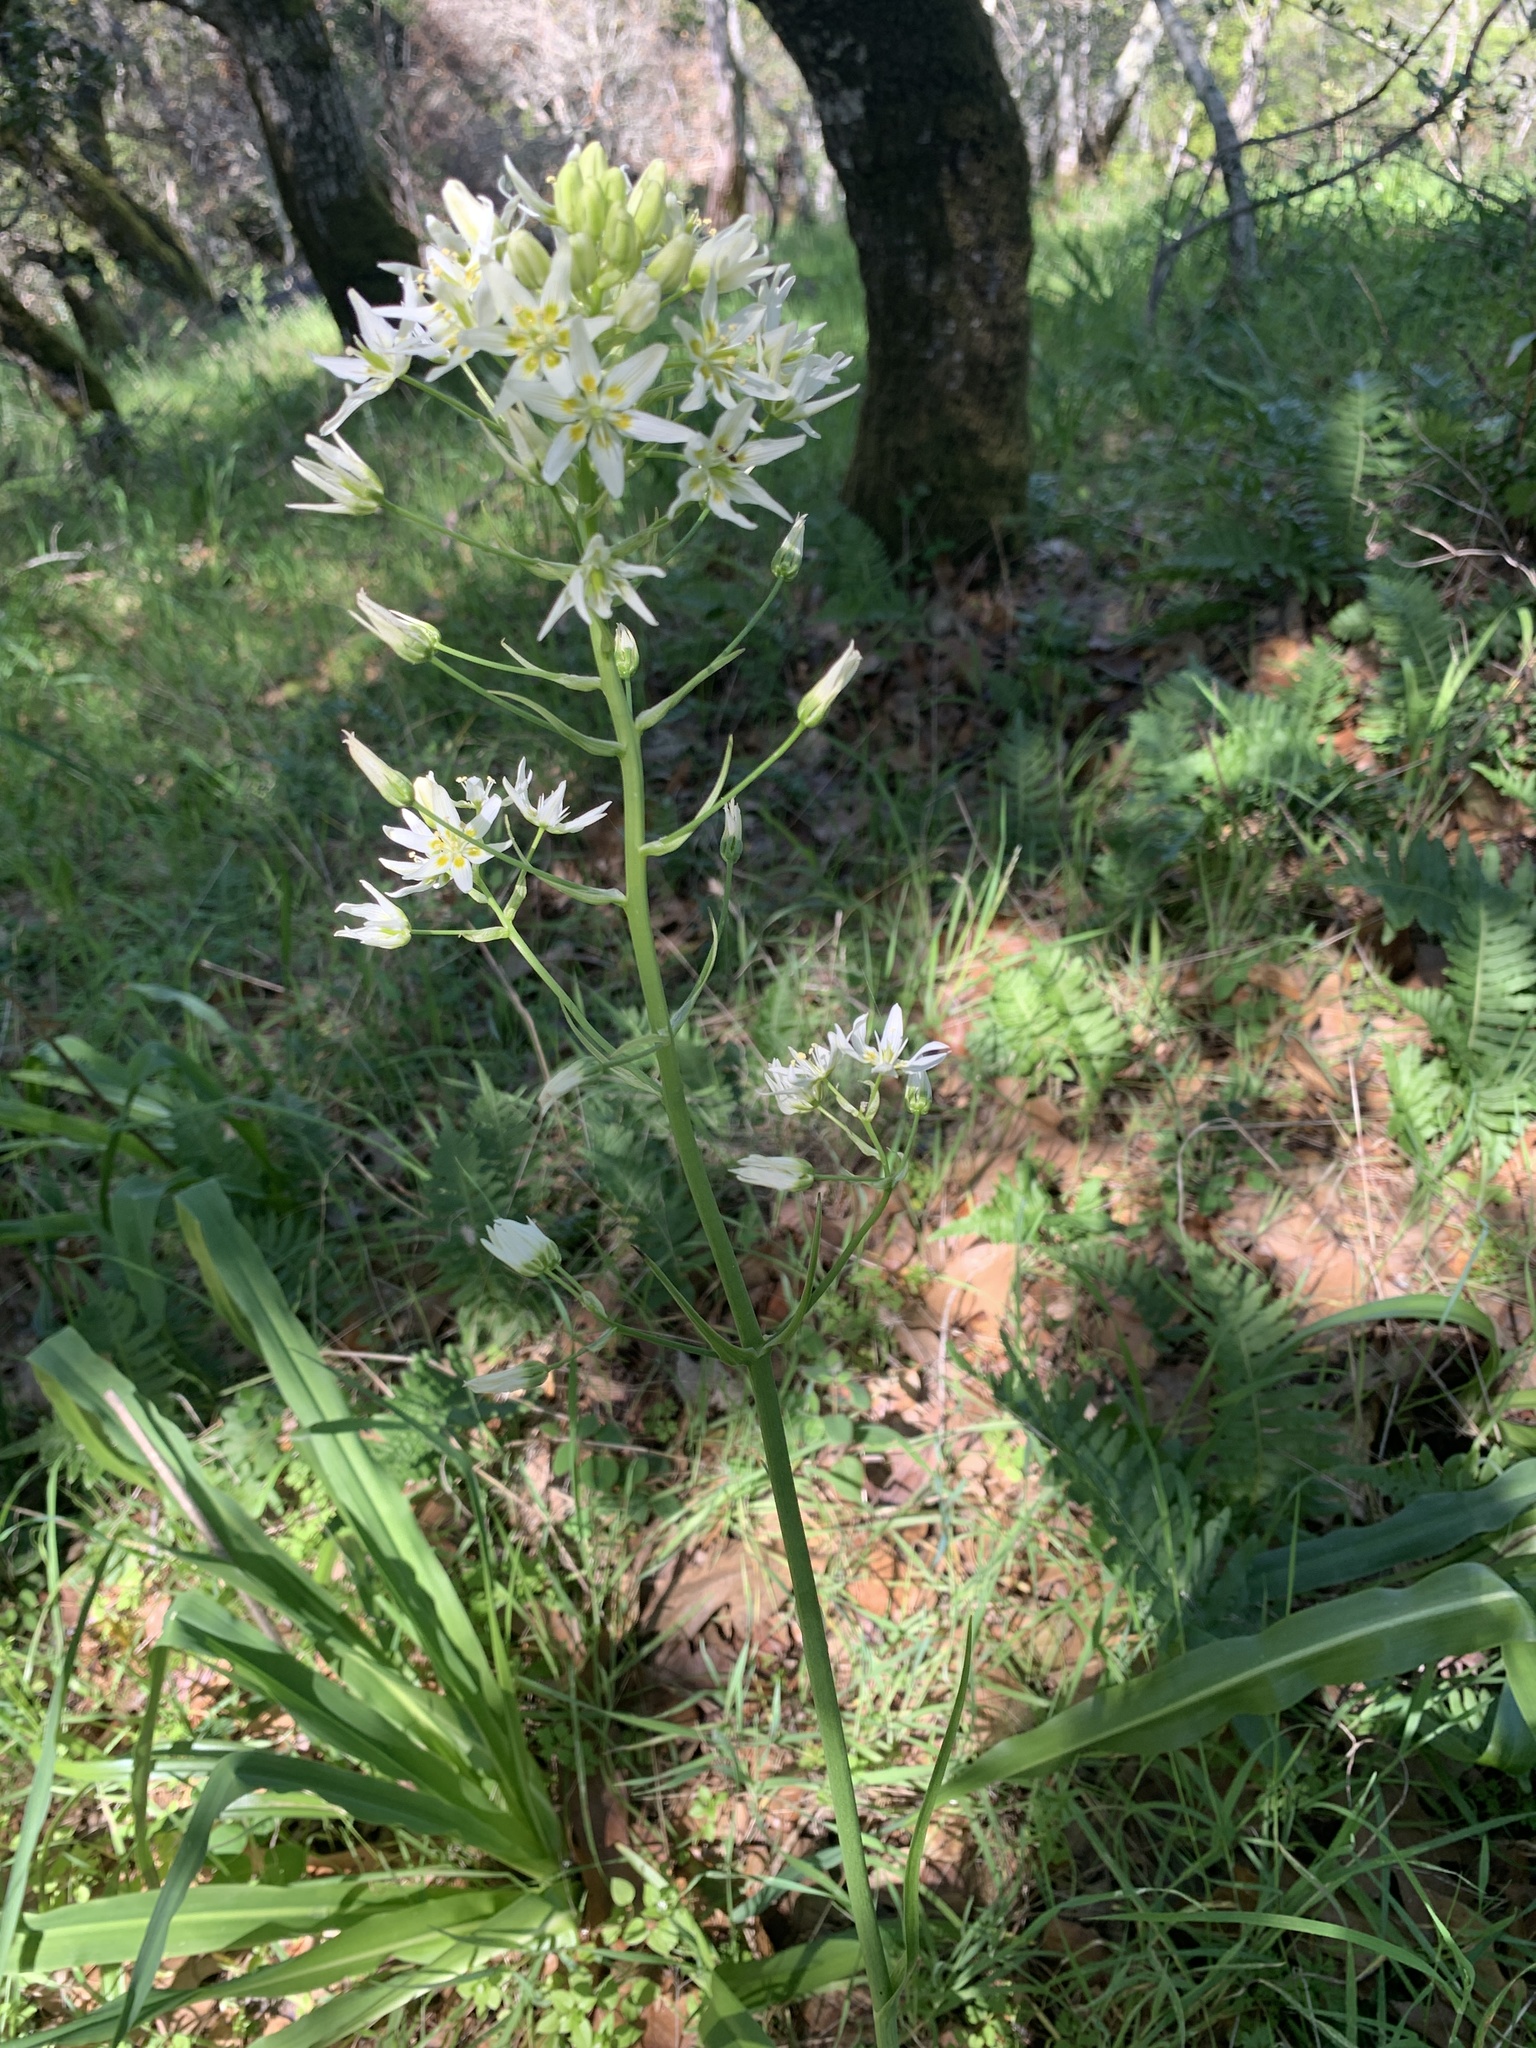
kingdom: Plantae
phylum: Tracheophyta
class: Liliopsida
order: Liliales
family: Melanthiaceae
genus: Toxicoscordion
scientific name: Toxicoscordion fremontii
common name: Fremont's death camas
